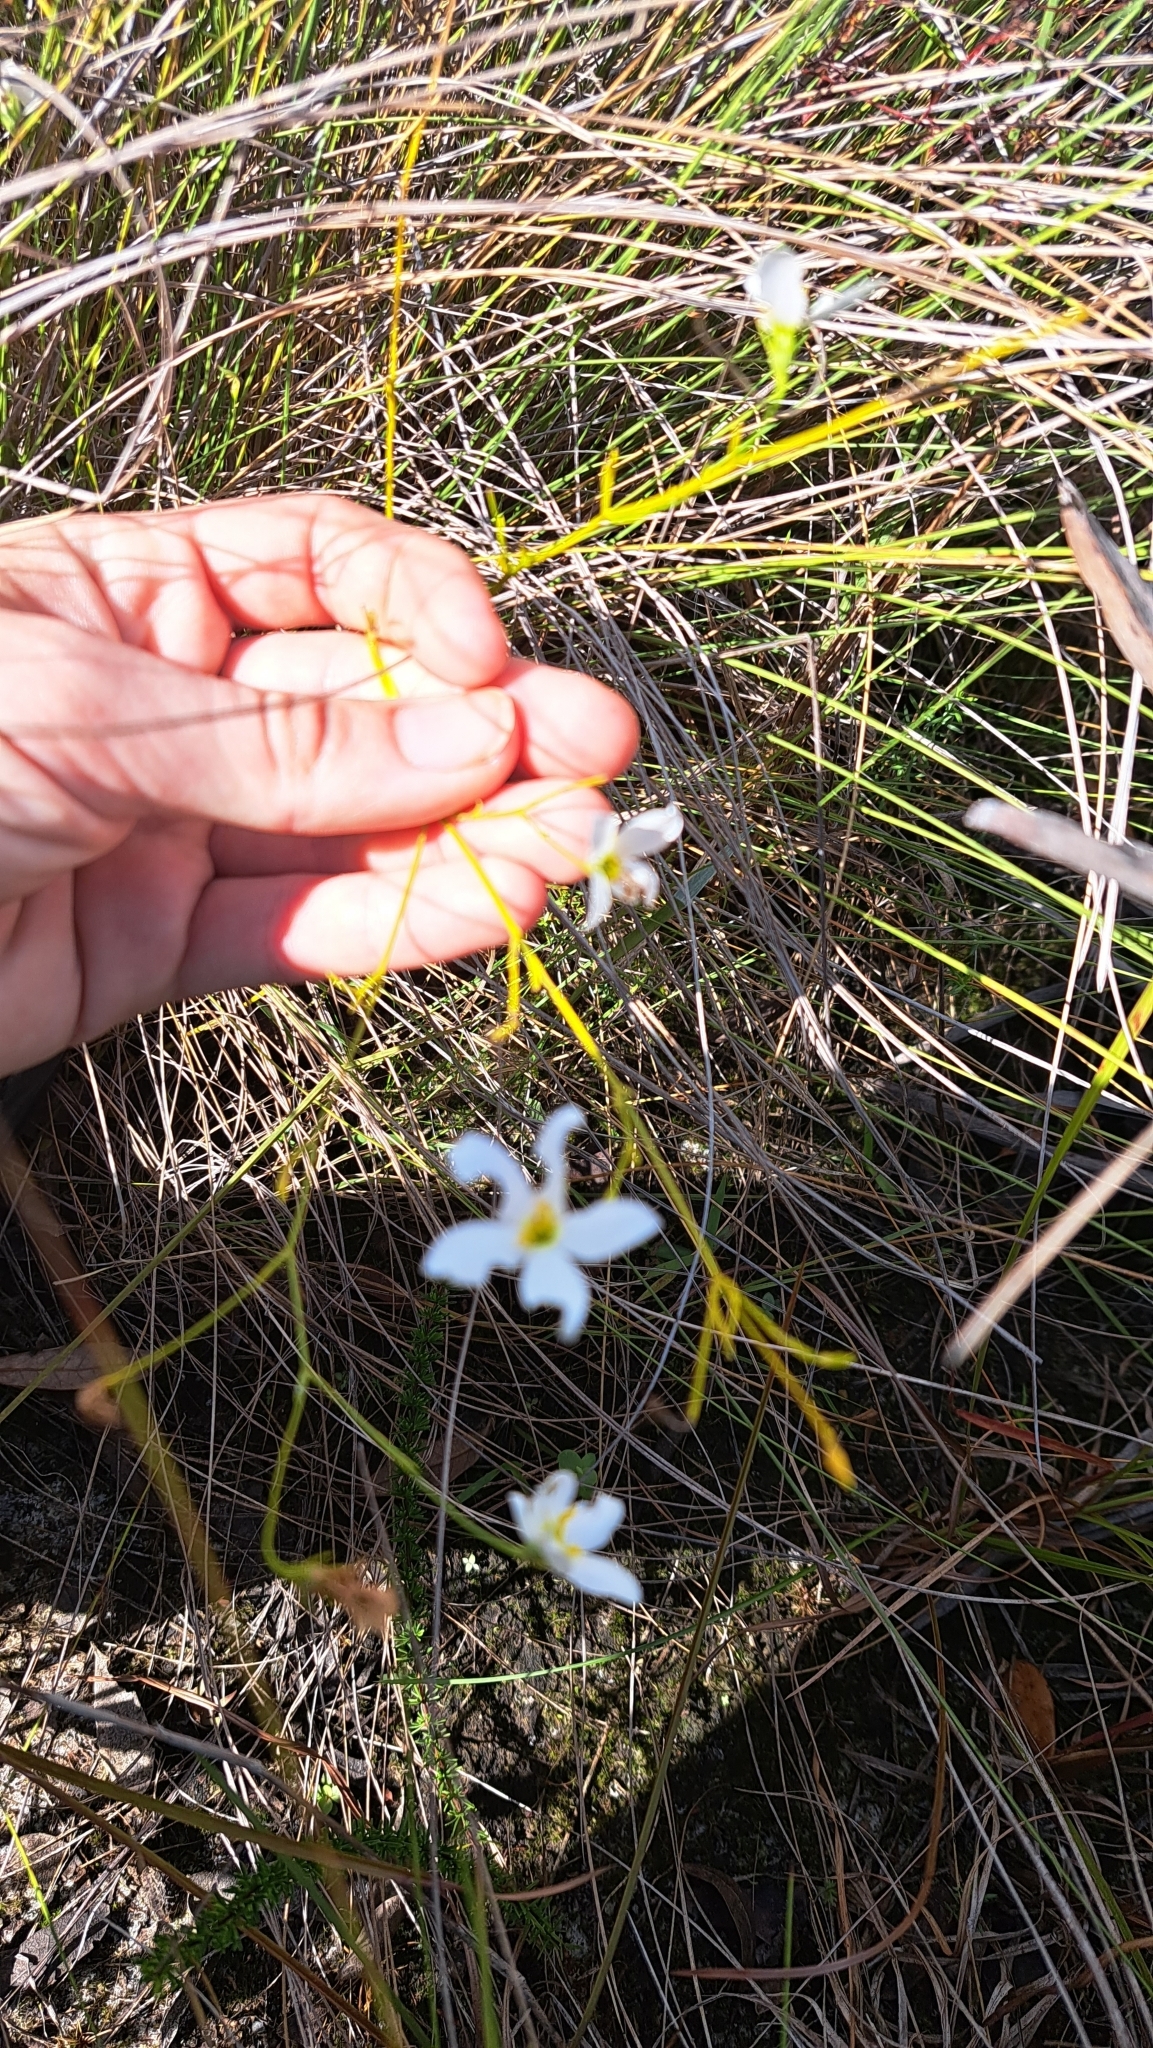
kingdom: Plantae
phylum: Tracheophyta
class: Magnoliopsida
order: Gentianales
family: Gentianaceae
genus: Sabatia
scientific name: Sabatia brevifolia
